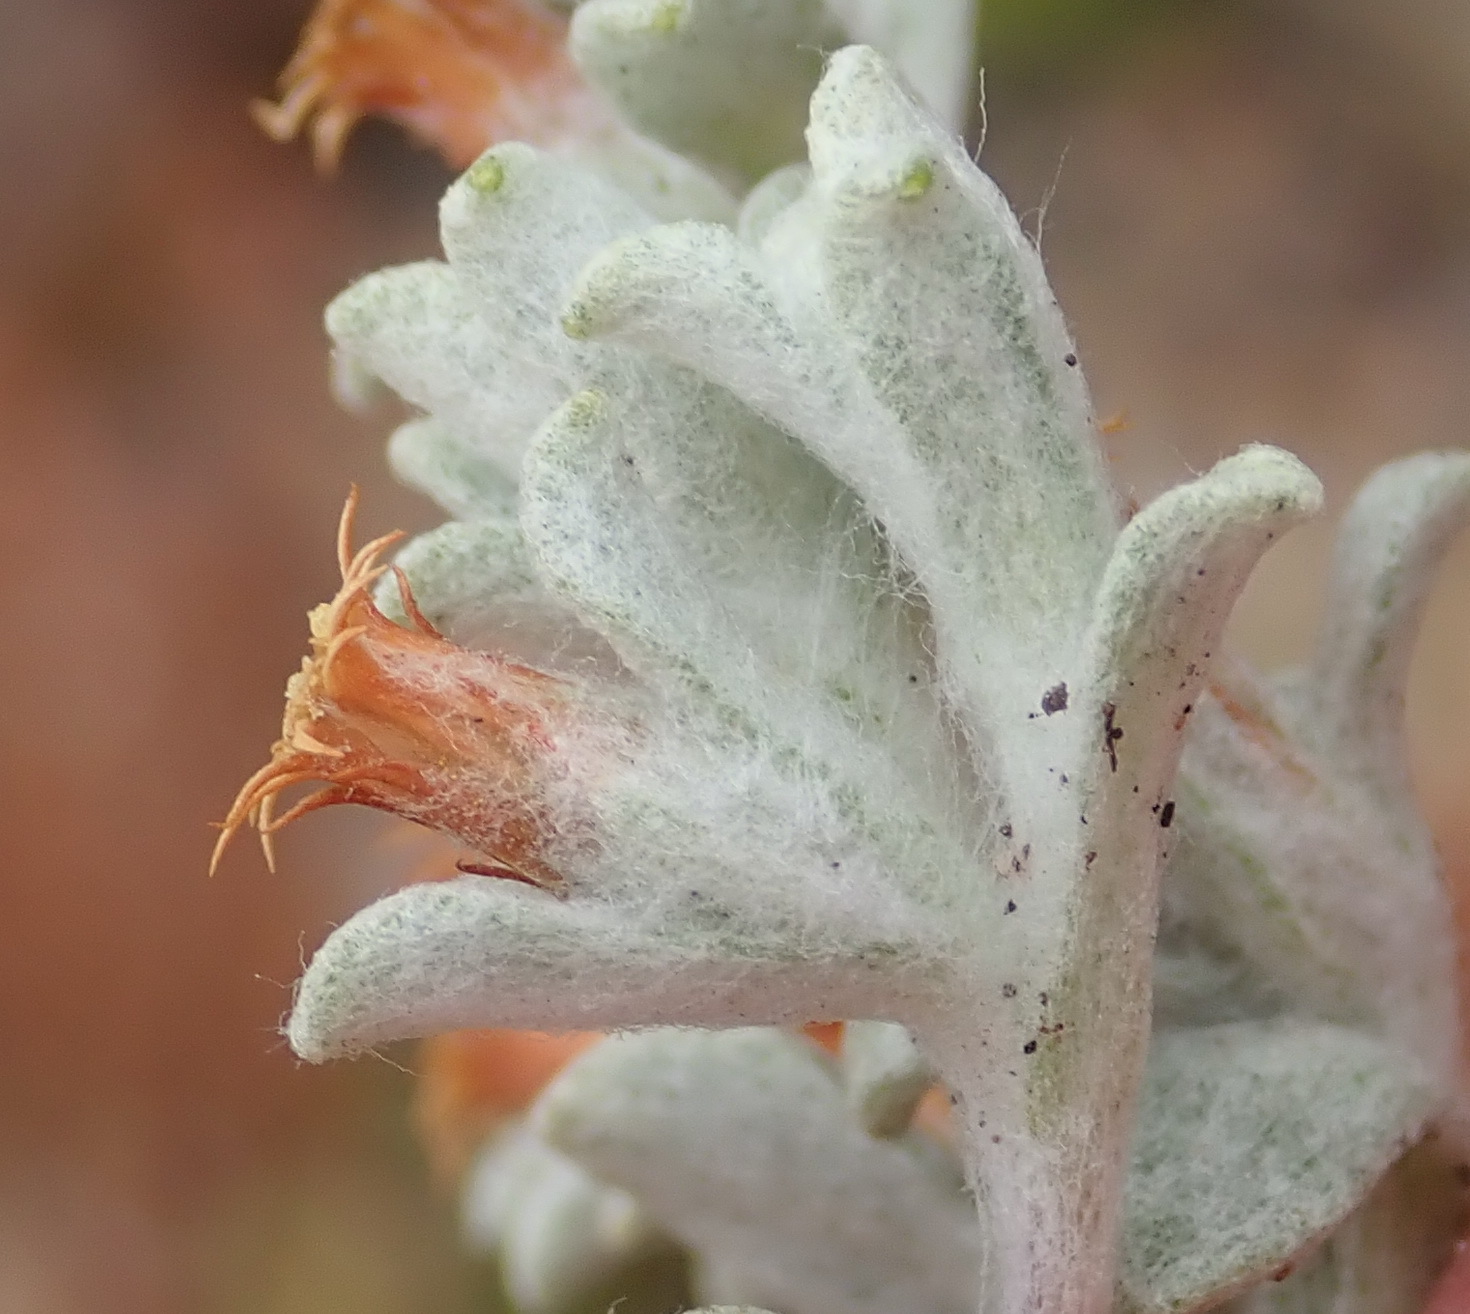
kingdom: Plantae
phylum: Tracheophyta
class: Magnoliopsida
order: Asterales
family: Asteraceae
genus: Helichrysum
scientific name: Helichrysum tinctum
